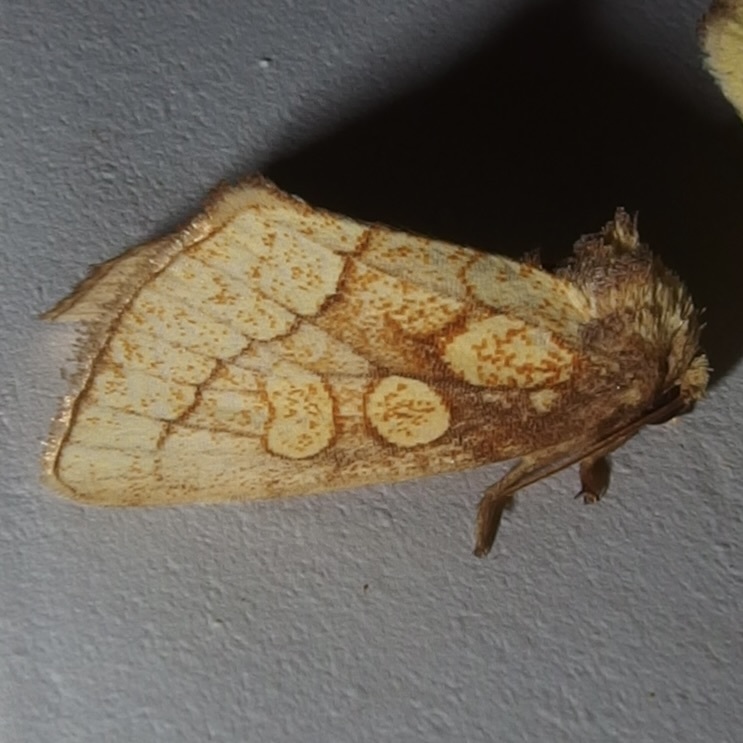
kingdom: Animalia
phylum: Arthropoda
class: Insecta
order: Lepidoptera
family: Noctuidae
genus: Nocloa
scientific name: Nocloa alcandra
